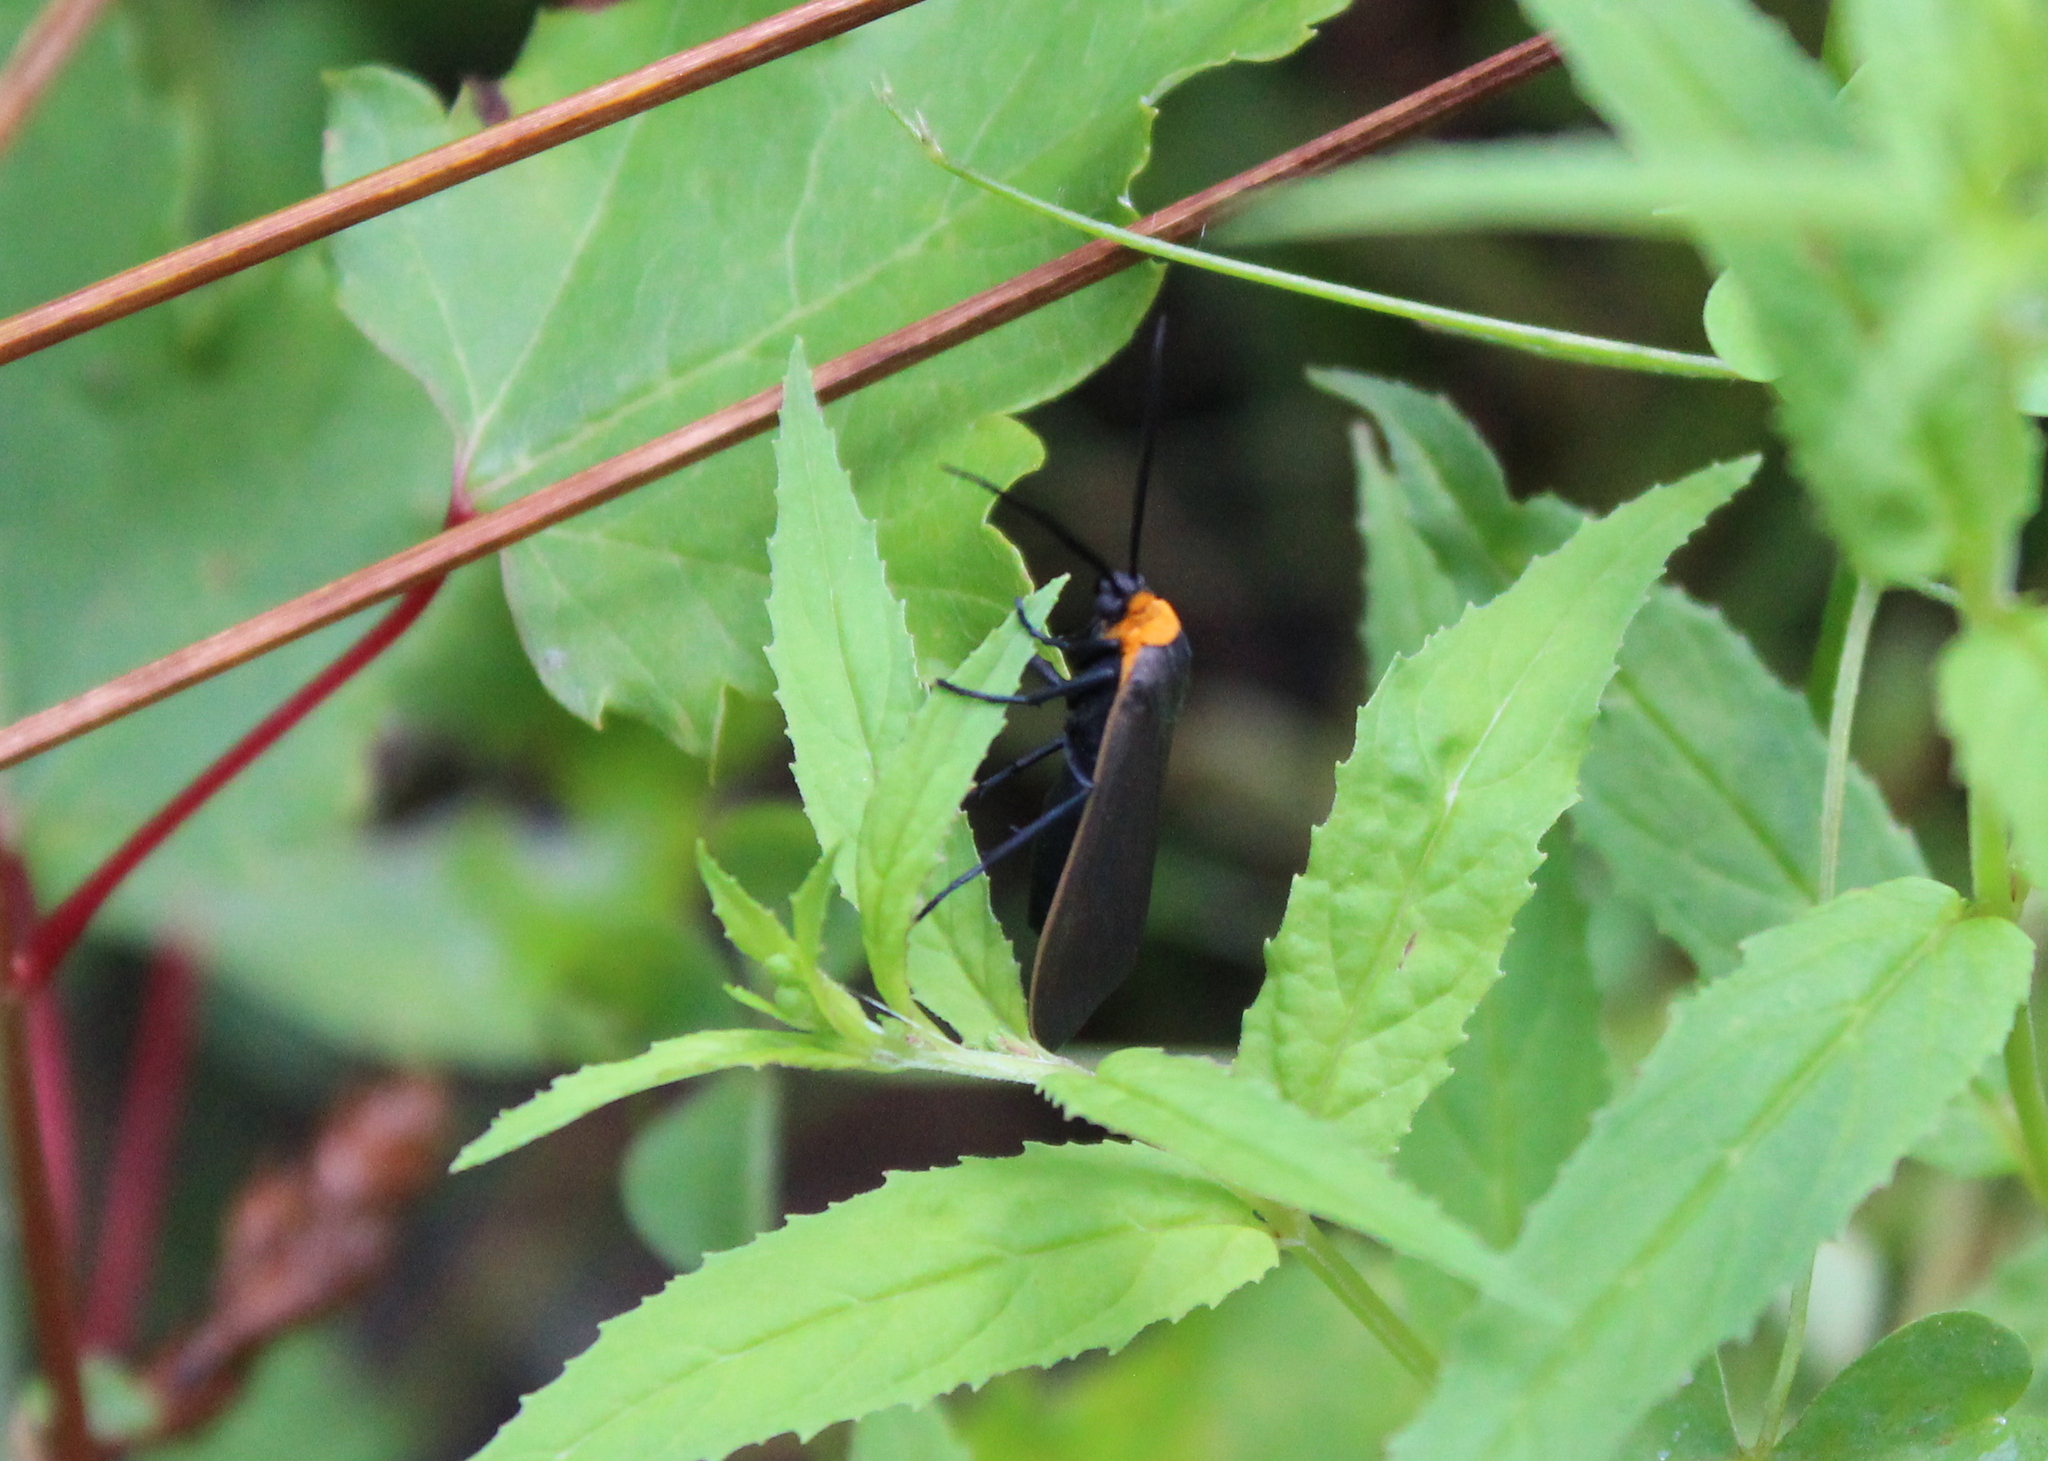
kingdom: Animalia
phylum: Arthropoda
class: Insecta
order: Lepidoptera
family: Erebidae
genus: Cisseps
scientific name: Cisseps fulvicollis
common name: Yellow-collared scape moth
